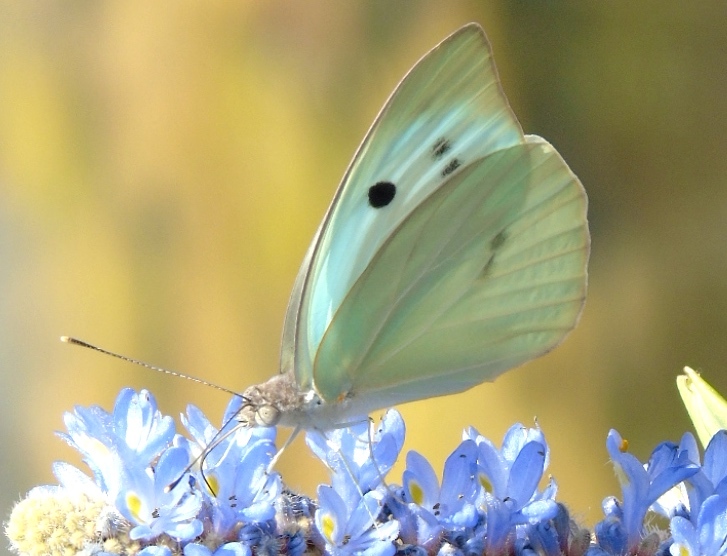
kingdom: Animalia
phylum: Arthropoda
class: Insecta
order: Lepidoptera
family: Pieridae
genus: Ganyra
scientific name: Ganyra josephina
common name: Giant white
